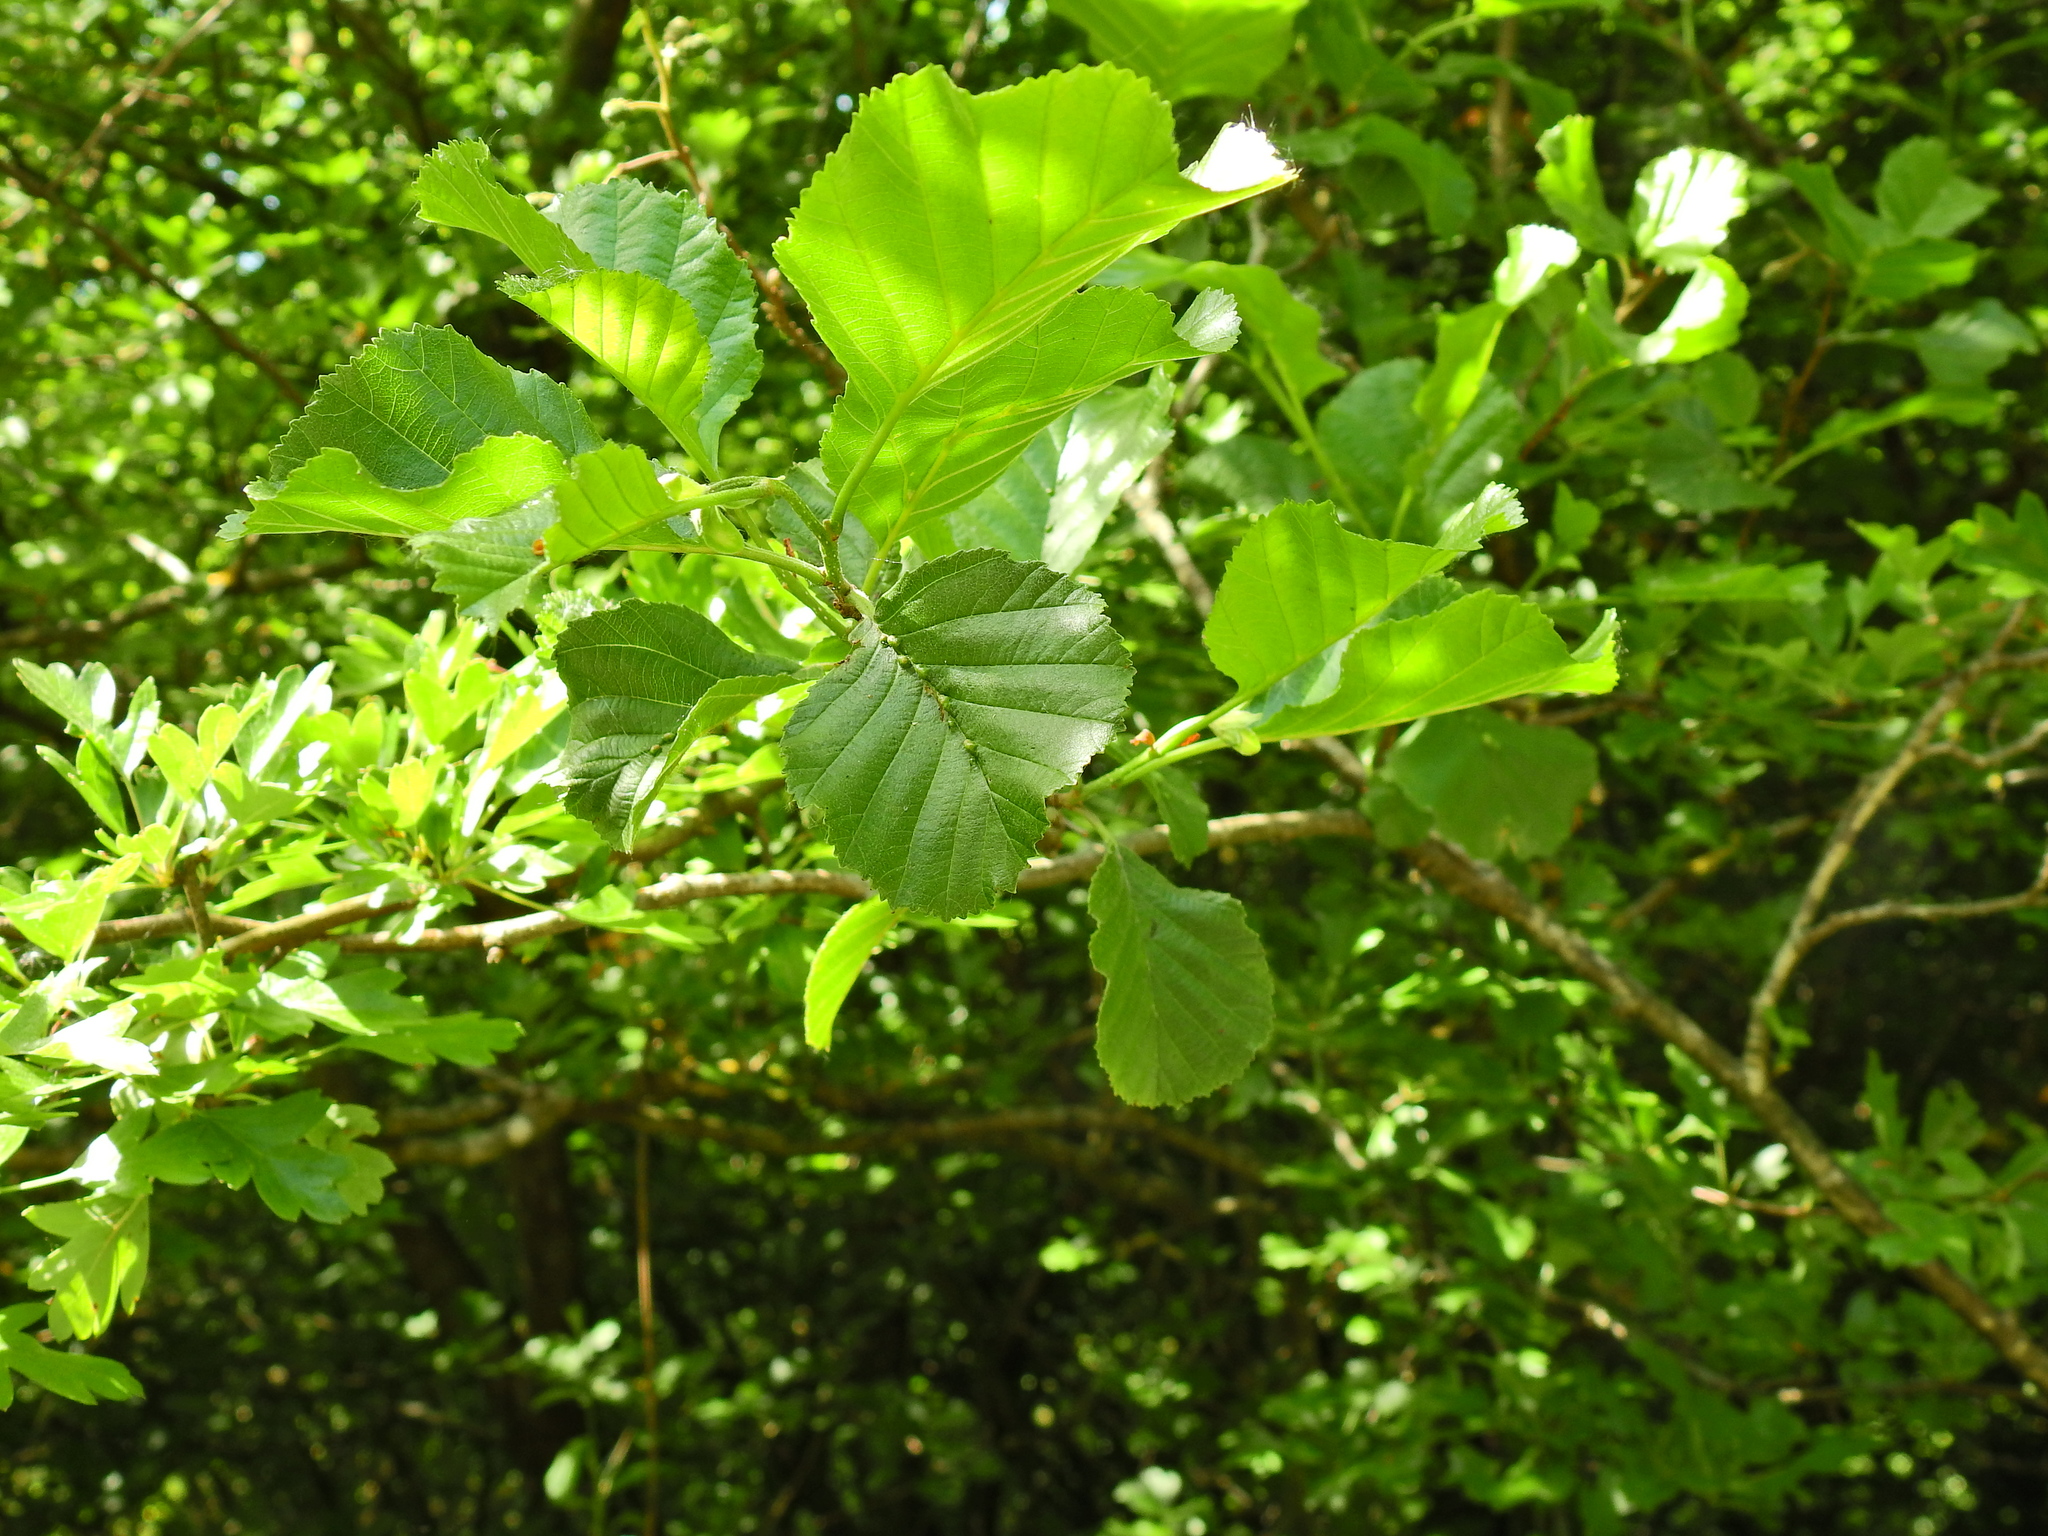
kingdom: Plantae
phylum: Tracheophyta
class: Magnoliopsida
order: Fagales
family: Betulaceae
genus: Alnus
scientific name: Alnus glutinosa
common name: Black alder
